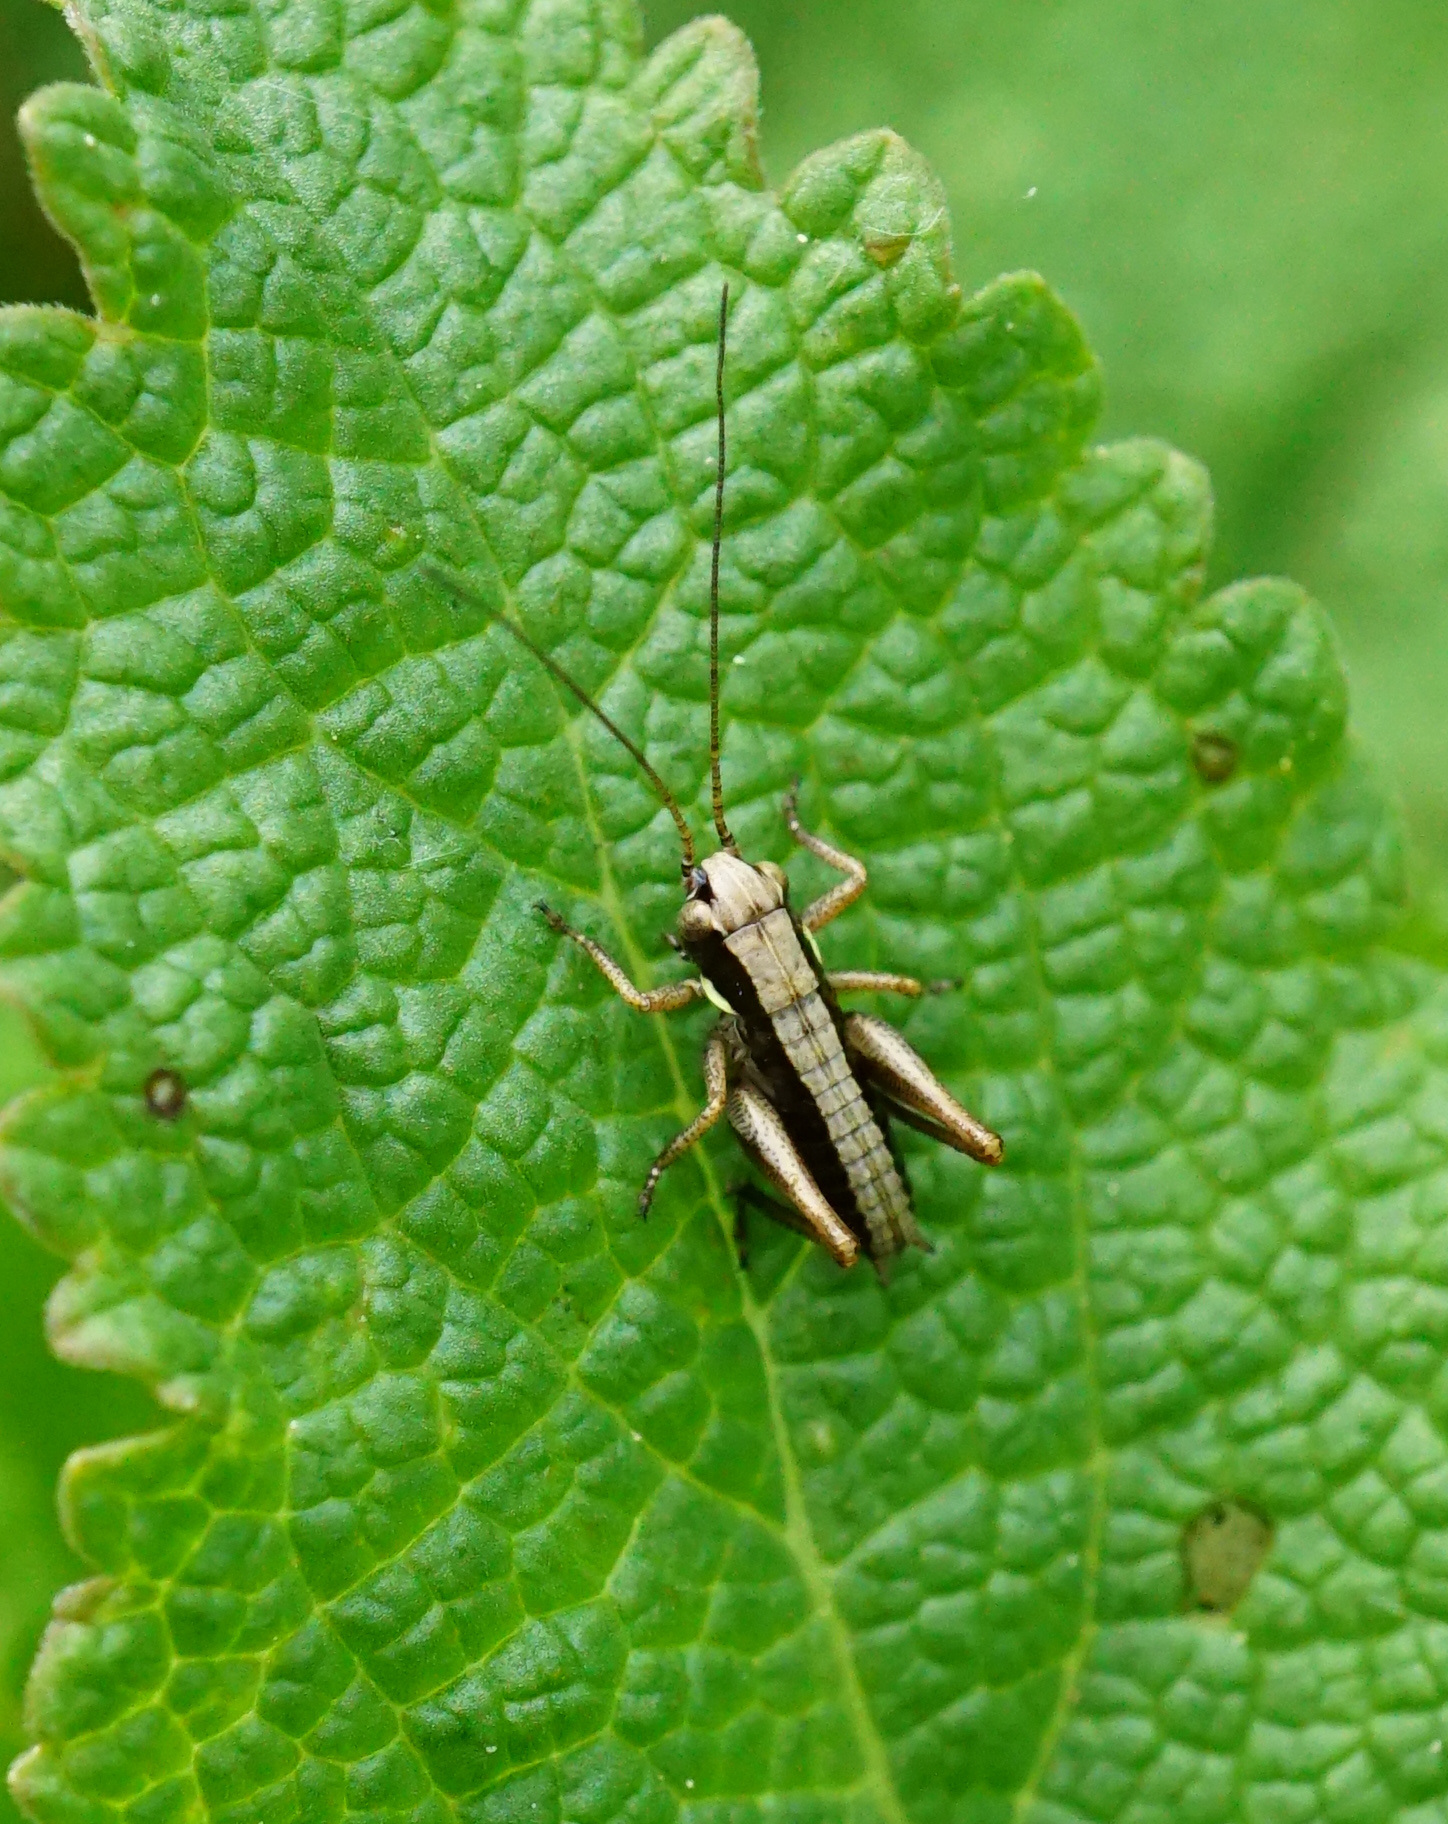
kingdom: Animalia
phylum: Arthropoda
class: Insecta
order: Orthoptera
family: Tettigoniidae
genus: Platycleis
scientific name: Platycleis grisea
